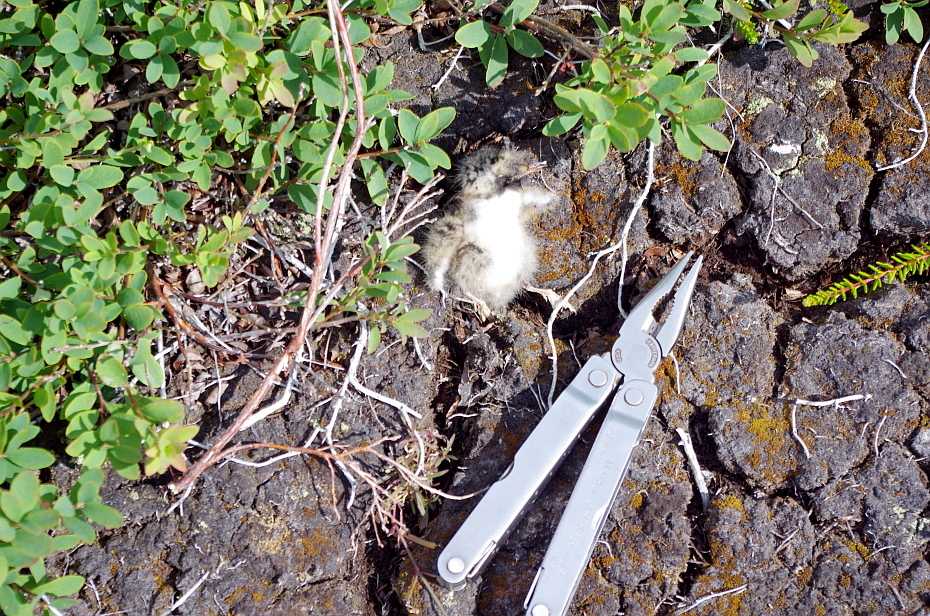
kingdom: Animalia
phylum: Chordata
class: Aves
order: Charadriiformes
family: Laridae
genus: Sterna
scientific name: Sterna paradisaea
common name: Arctic tern
